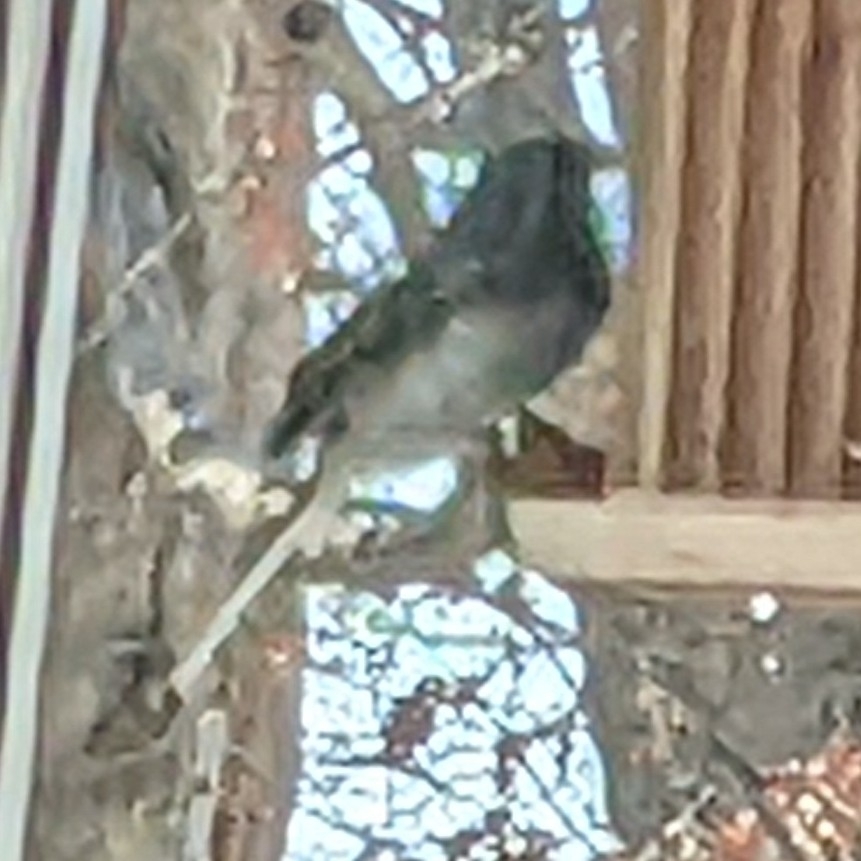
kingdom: Animalia
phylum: Chordata
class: Aves
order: Passeriformes
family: Passerellidae
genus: Junco
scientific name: Junco hyemalis
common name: Dark-eyed junco
